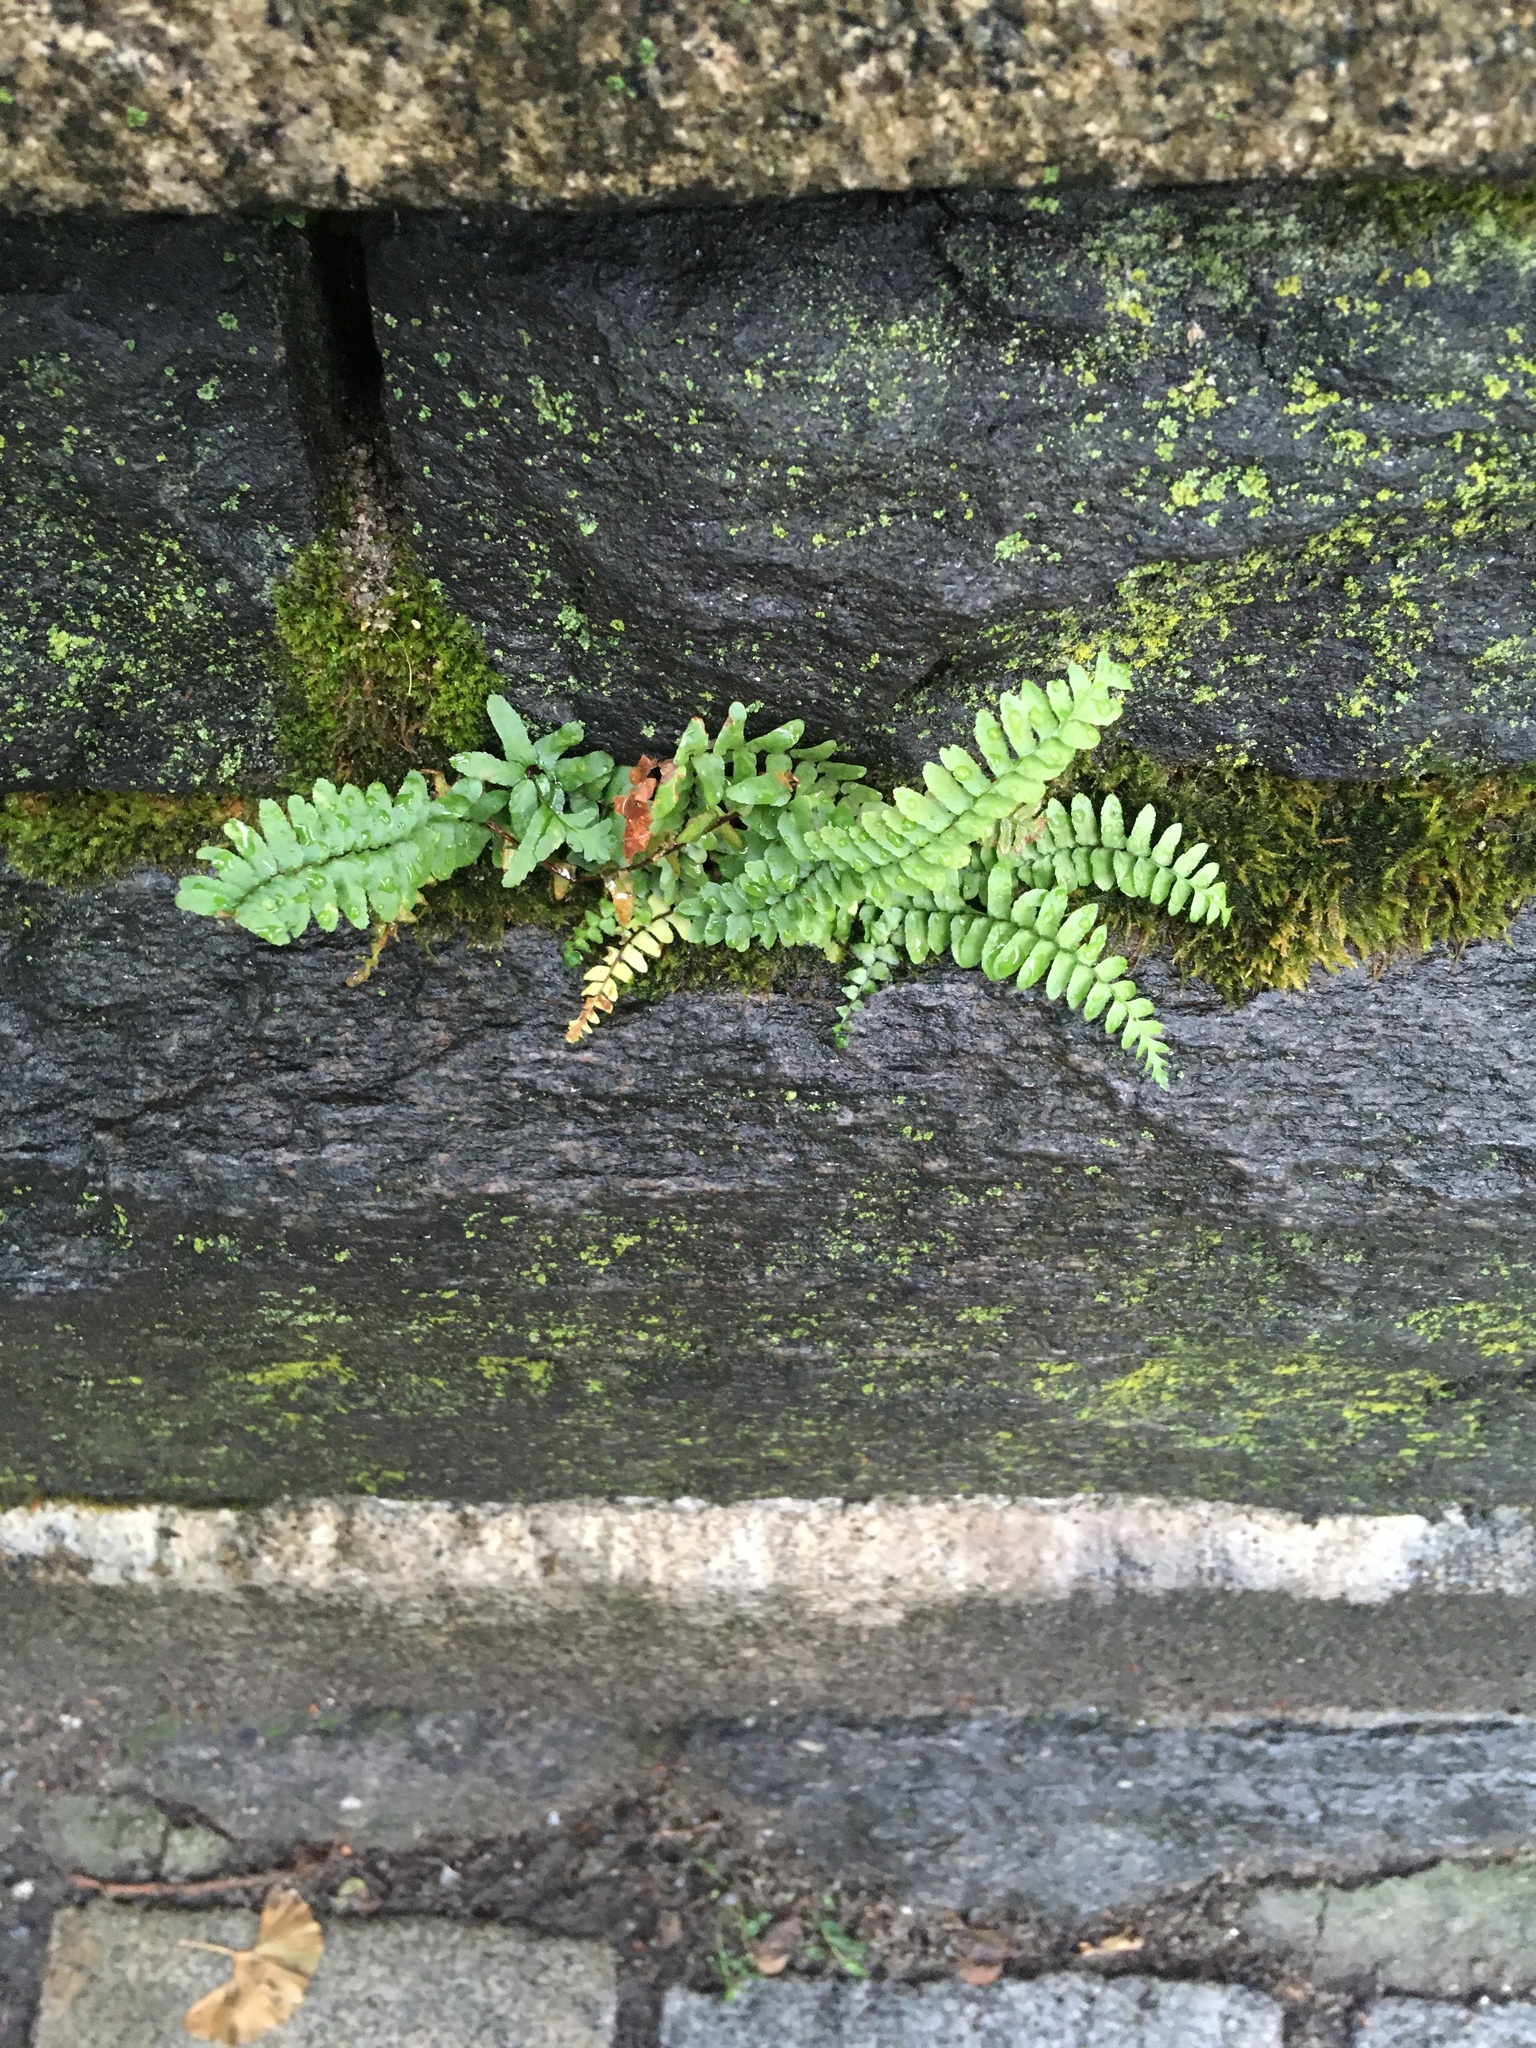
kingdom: Plantae
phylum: Tracheophyta
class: Polypodiopsida
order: Polypodiales
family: Aspleniaceae
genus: Asplenium
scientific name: Asplenium platyneuron
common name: Ebony spleenwort
